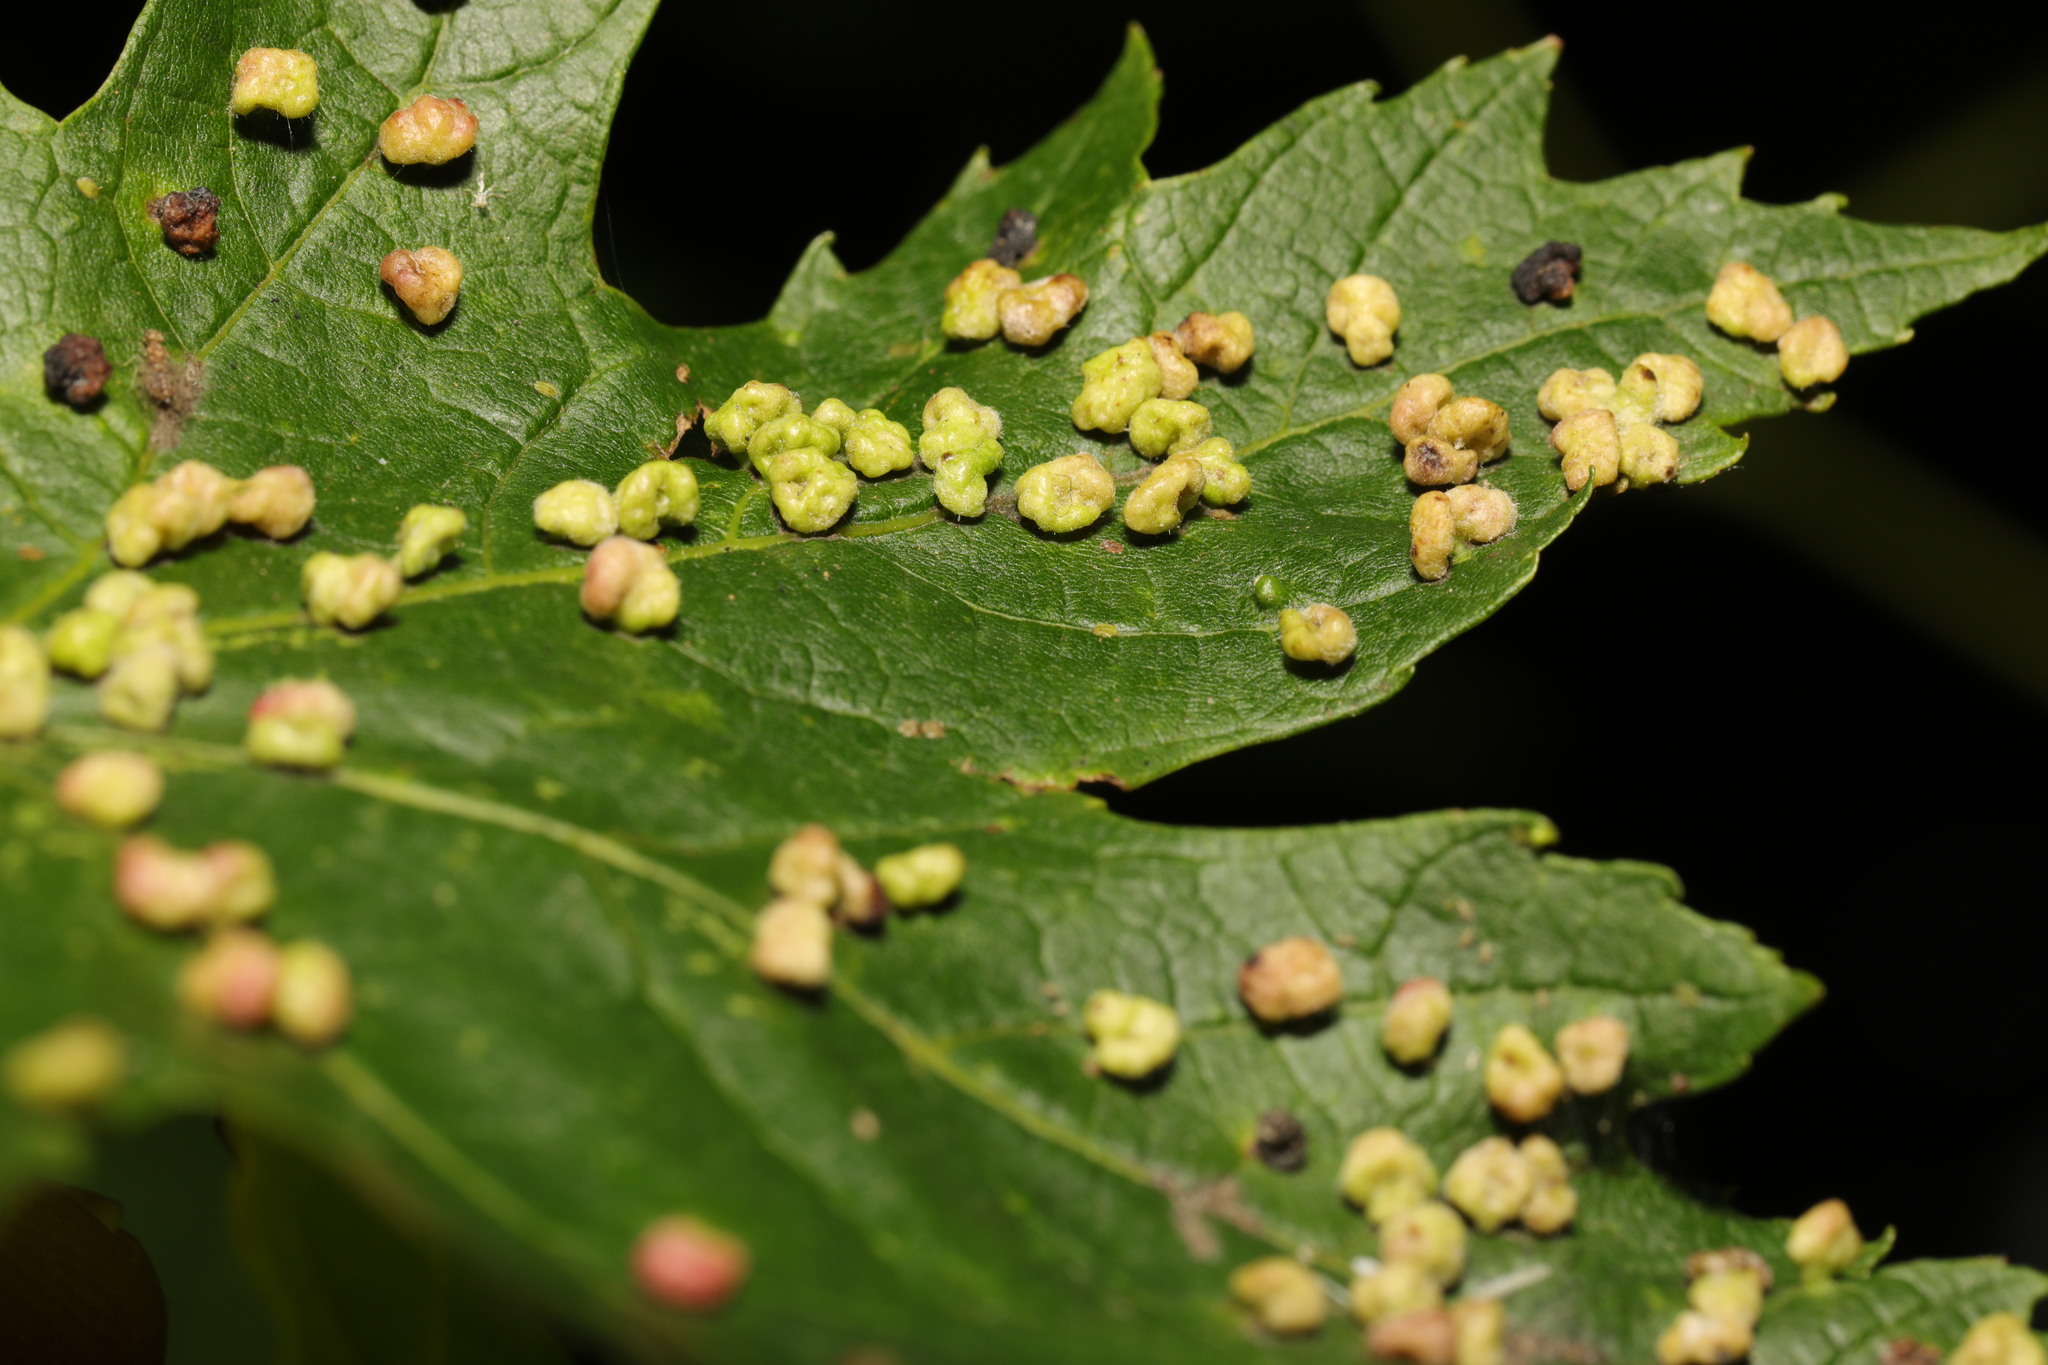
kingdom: Animalia
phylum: Arthropoda
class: Arachnida
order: Trombidiformes
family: Eriophyidae
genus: Vasates
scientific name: Vasates quadripedes
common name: Maple bladder gall mite
